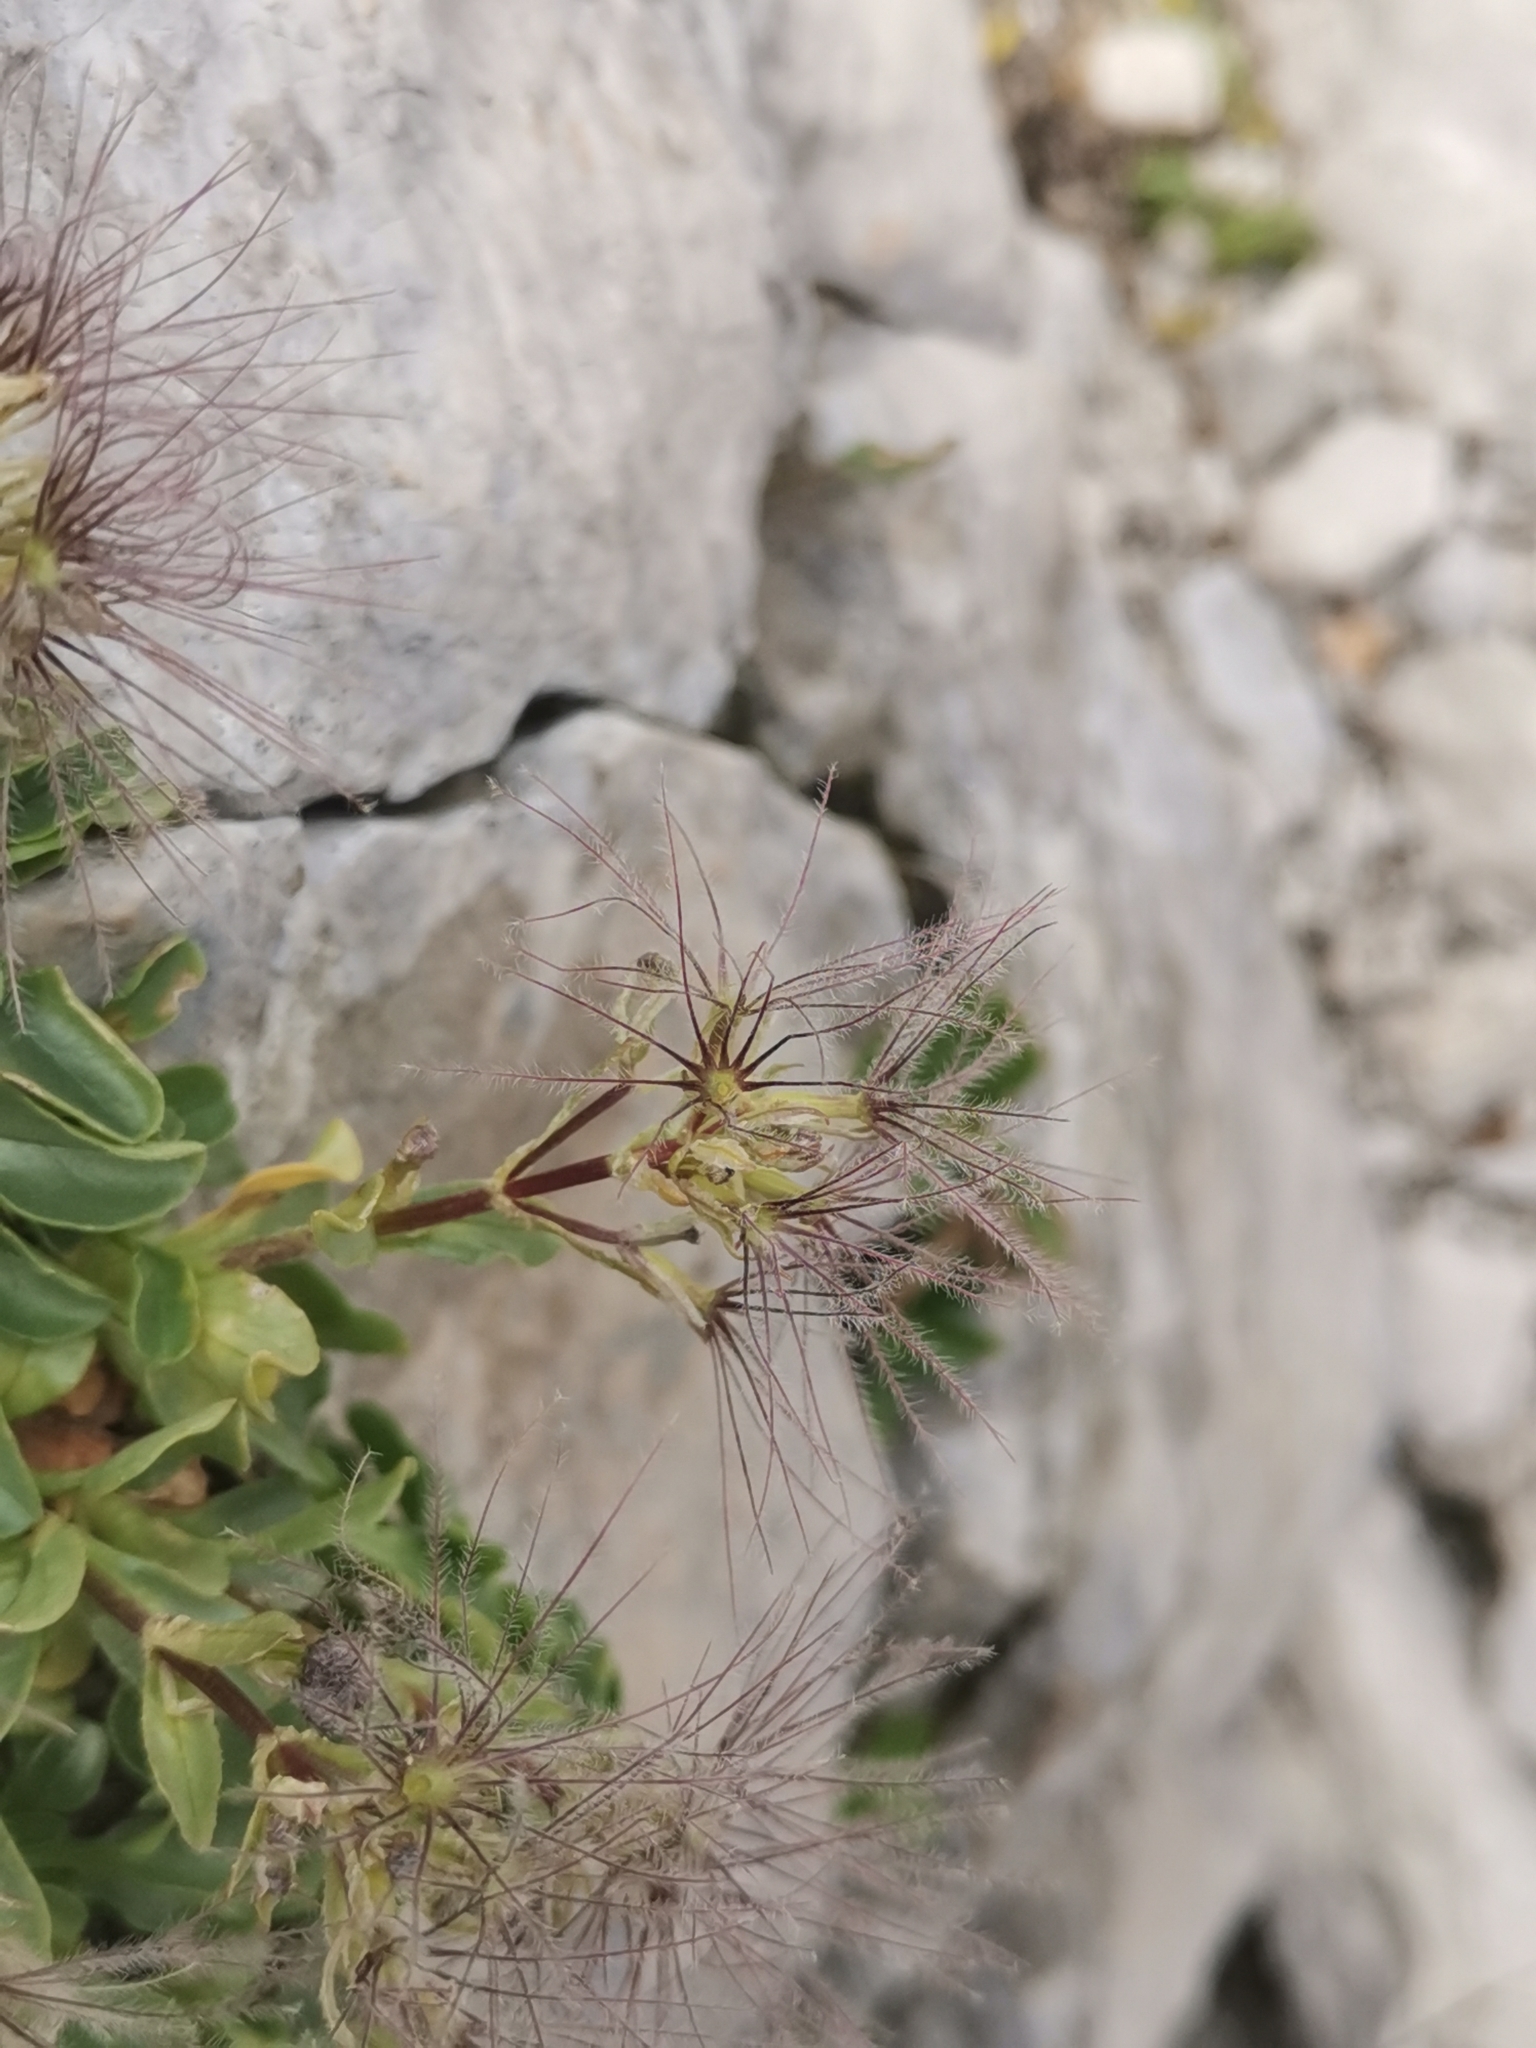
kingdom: Plantae
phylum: Tracheophyta
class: Magnoliopsida
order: Dipsacales
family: Caprifoliaceae
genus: Valeriana
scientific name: Valeriana supina
